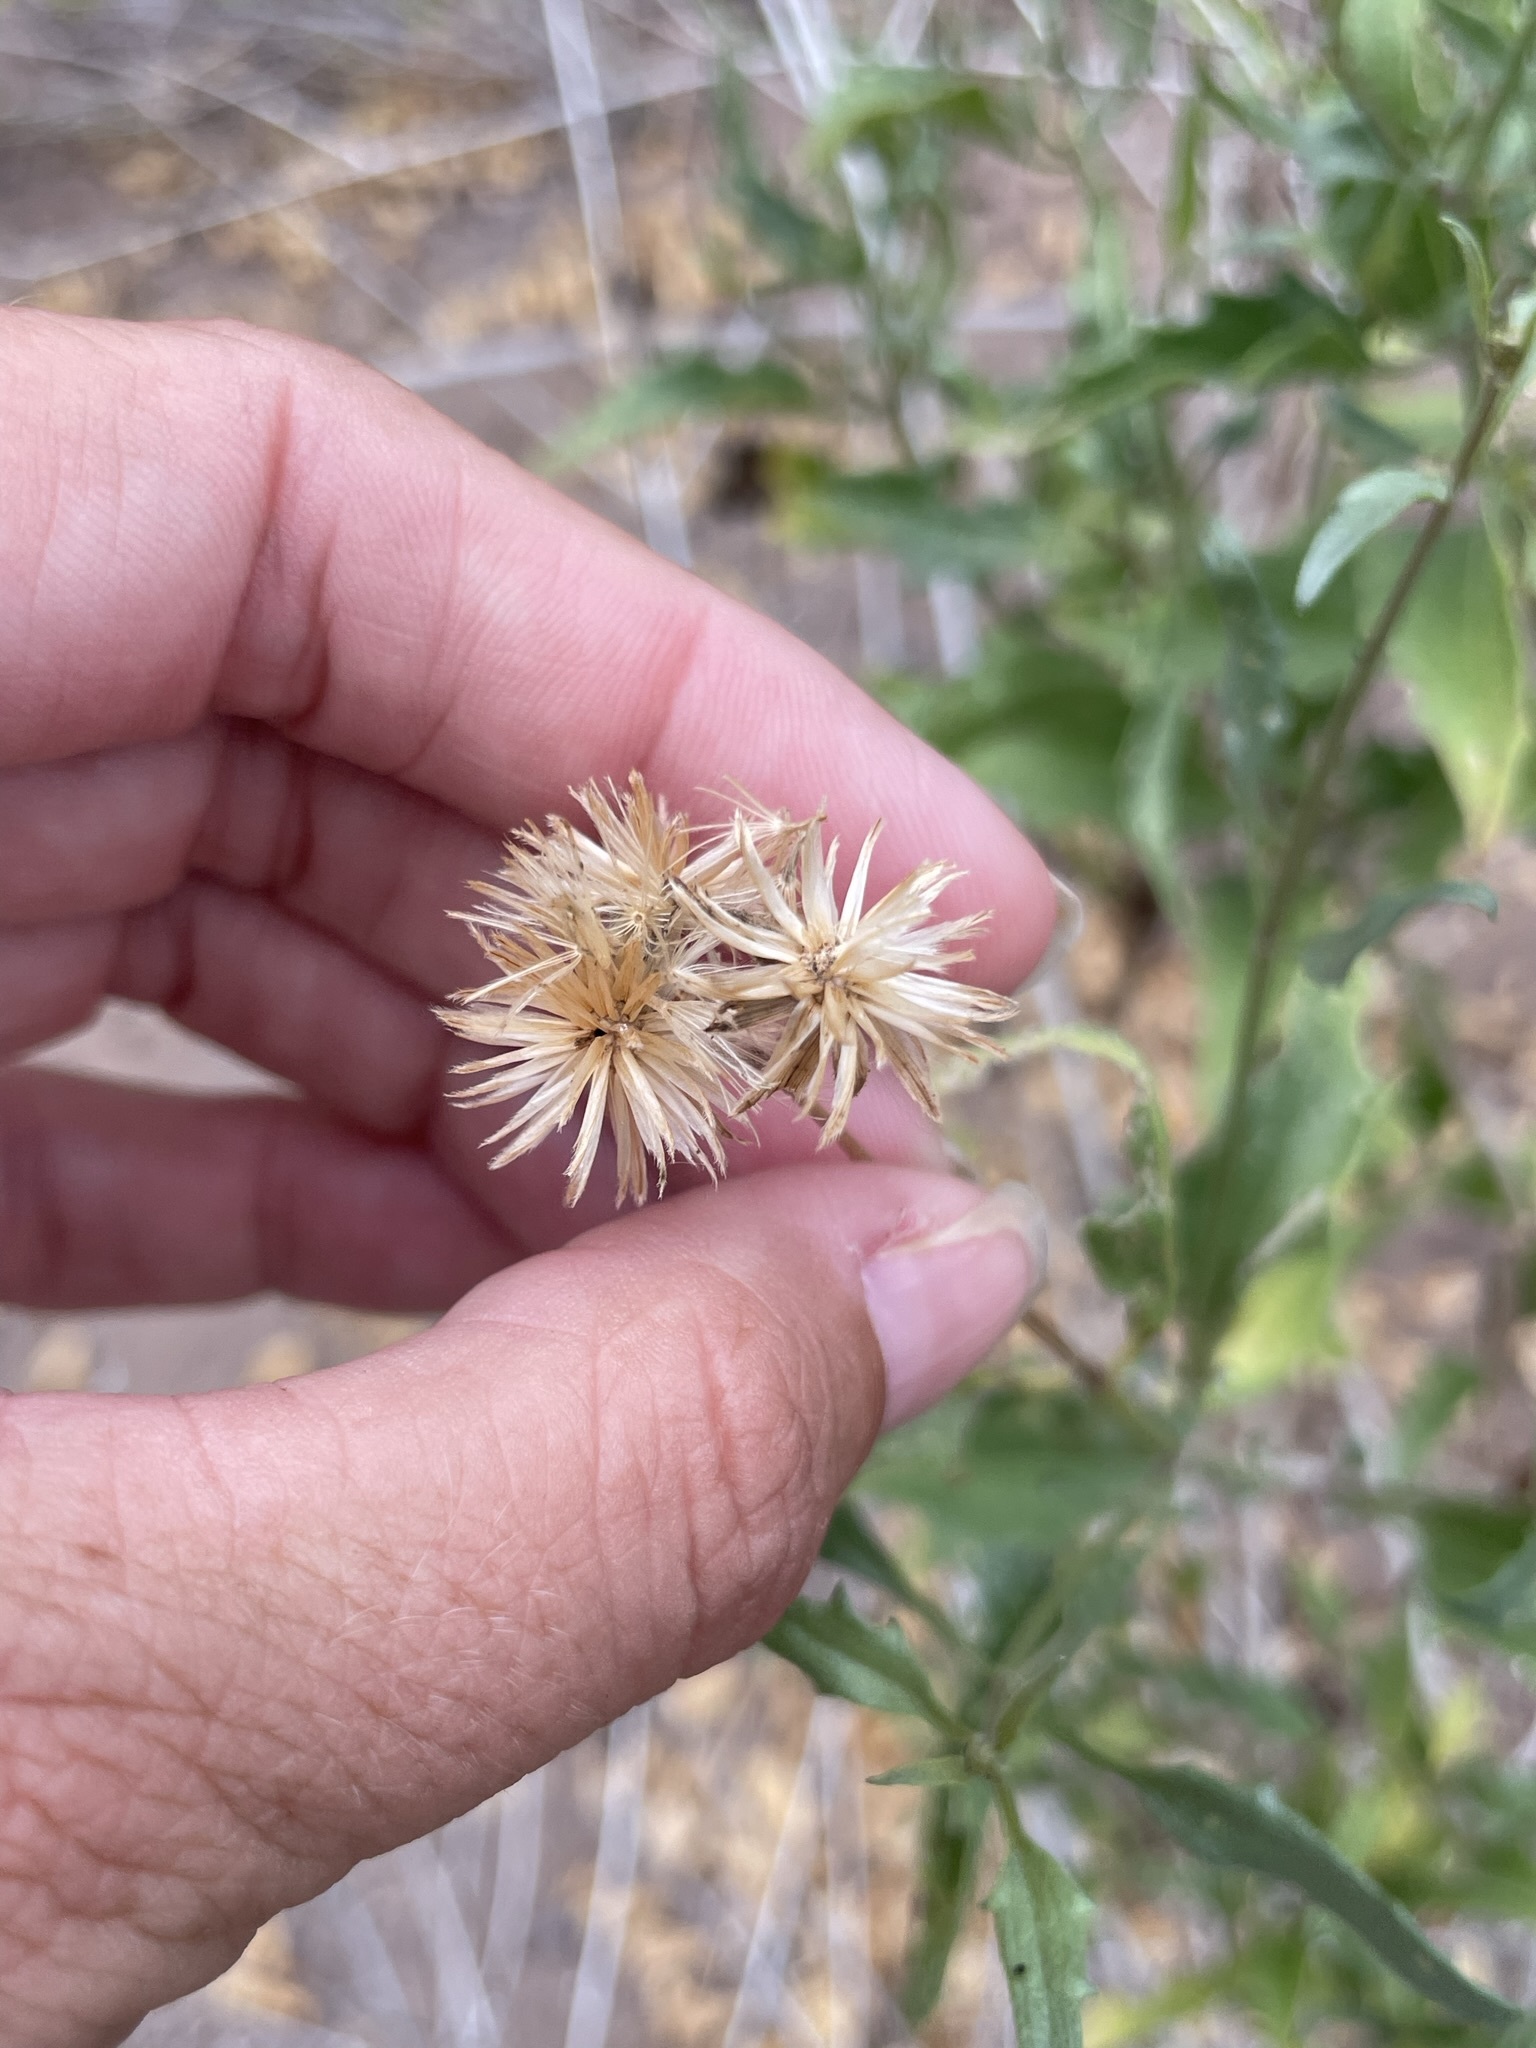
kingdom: Plantae
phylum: Tracheophyta
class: Magnoliopsida
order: Asterales
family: Asteraceae
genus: Bebbia
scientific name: Bebbia atriplicifolia
